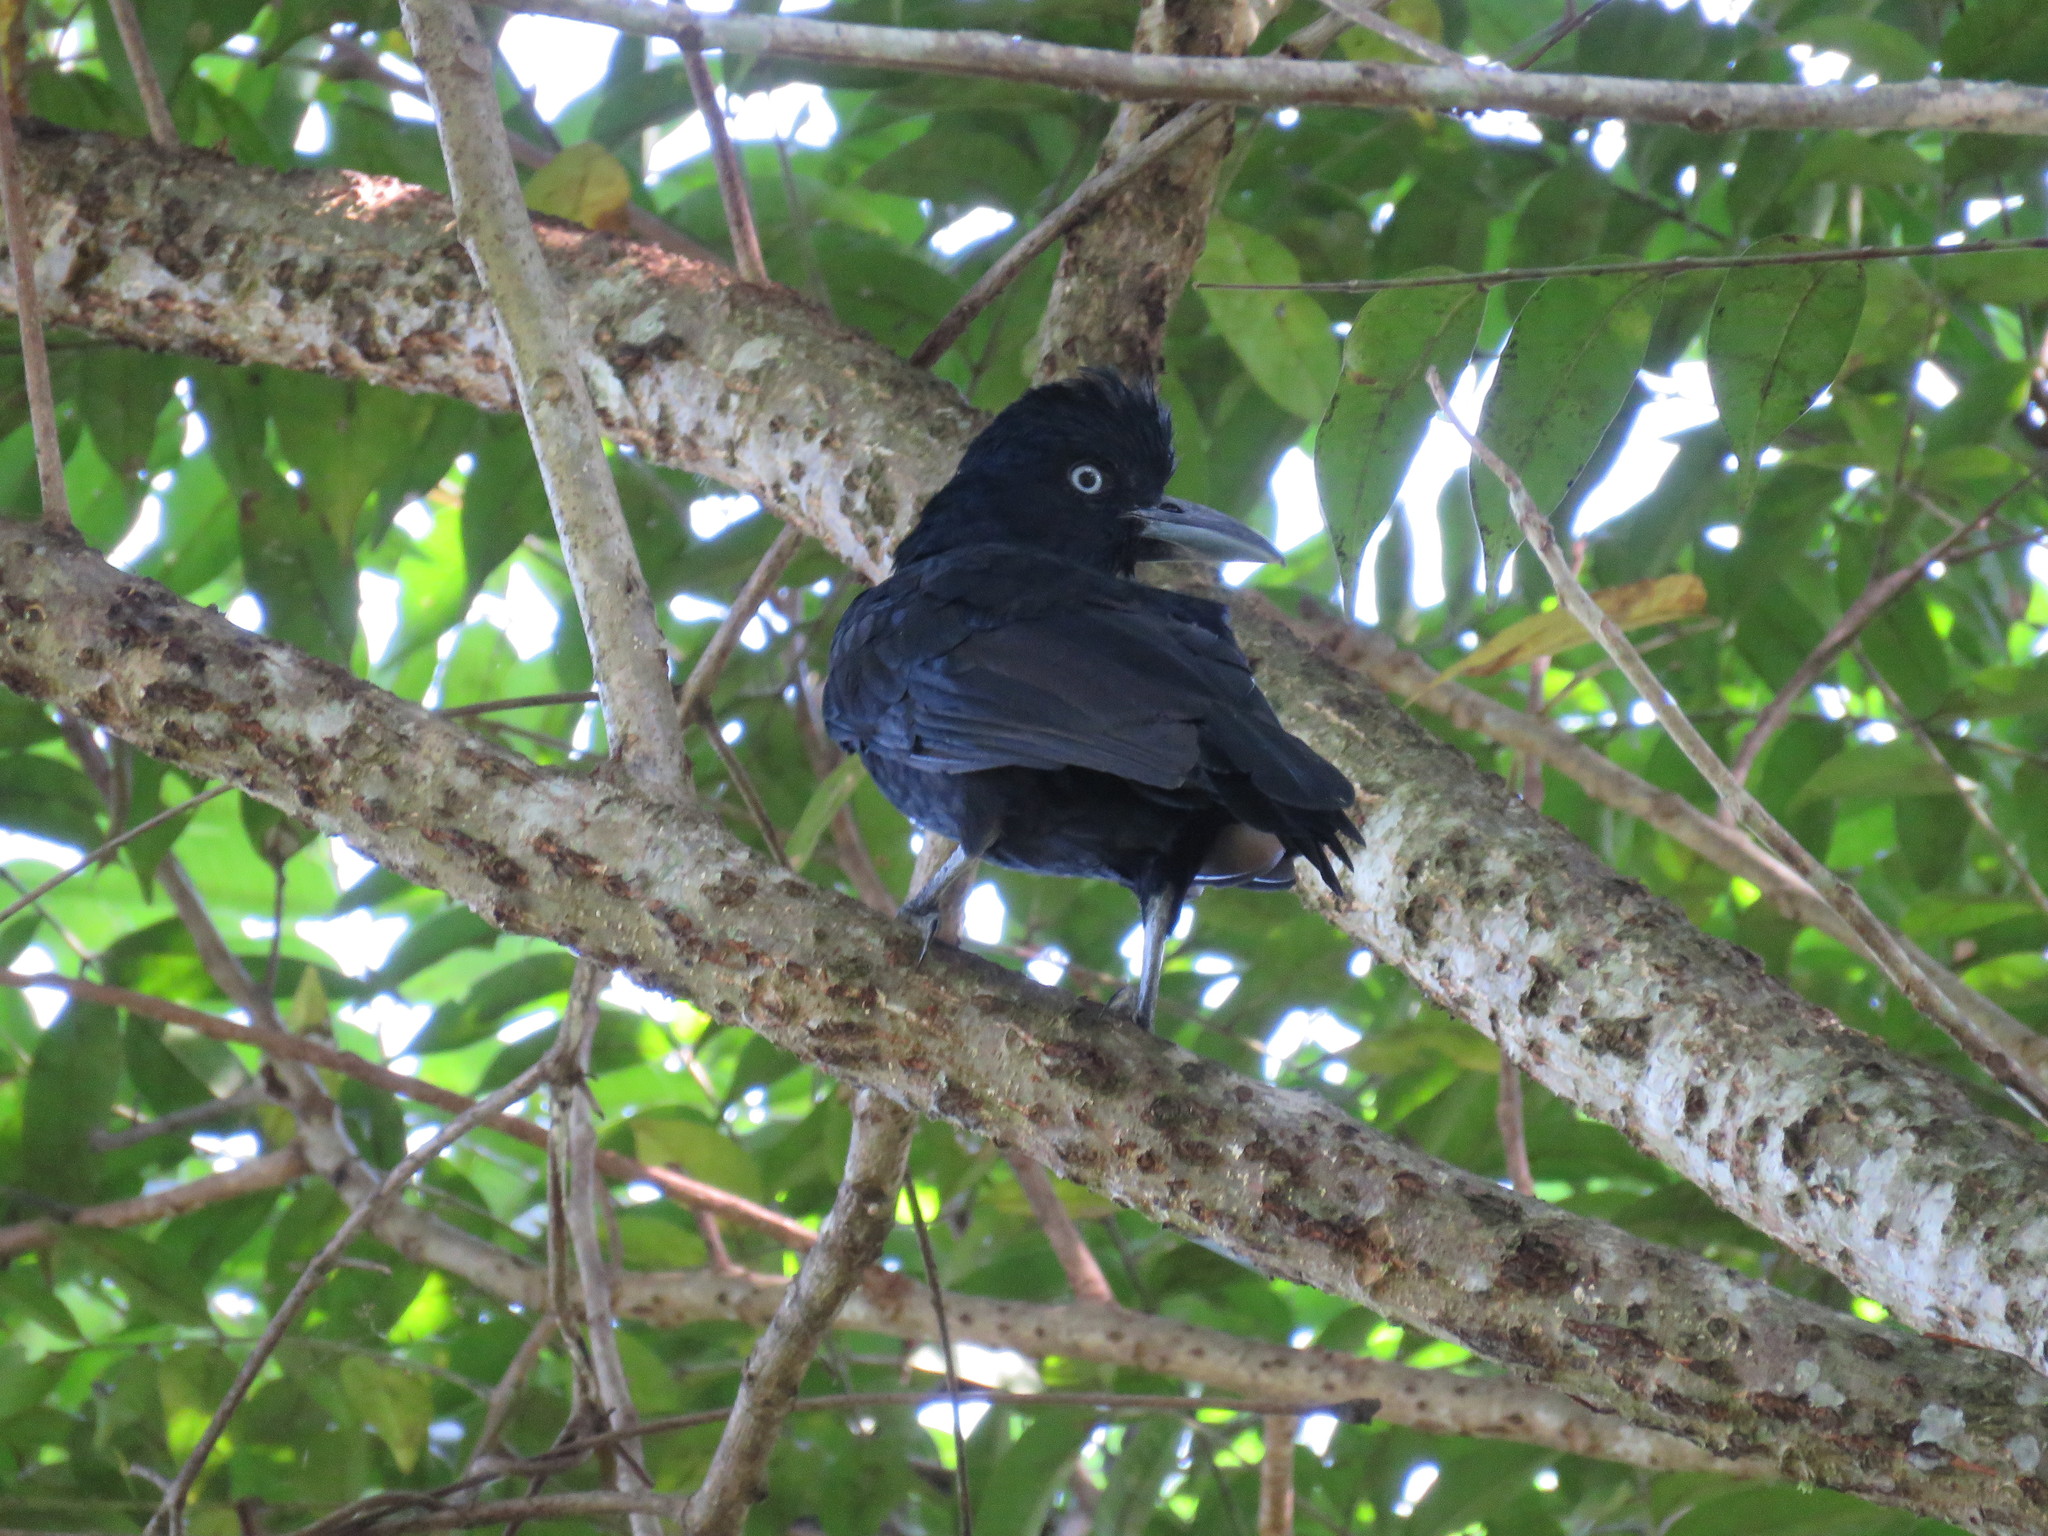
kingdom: Animalia
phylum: Chordata
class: Aves
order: Passeriformes
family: Cotingidae
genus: Cephalopterus
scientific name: Cephalopterus ornatus
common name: Amazonian umbrellabird
